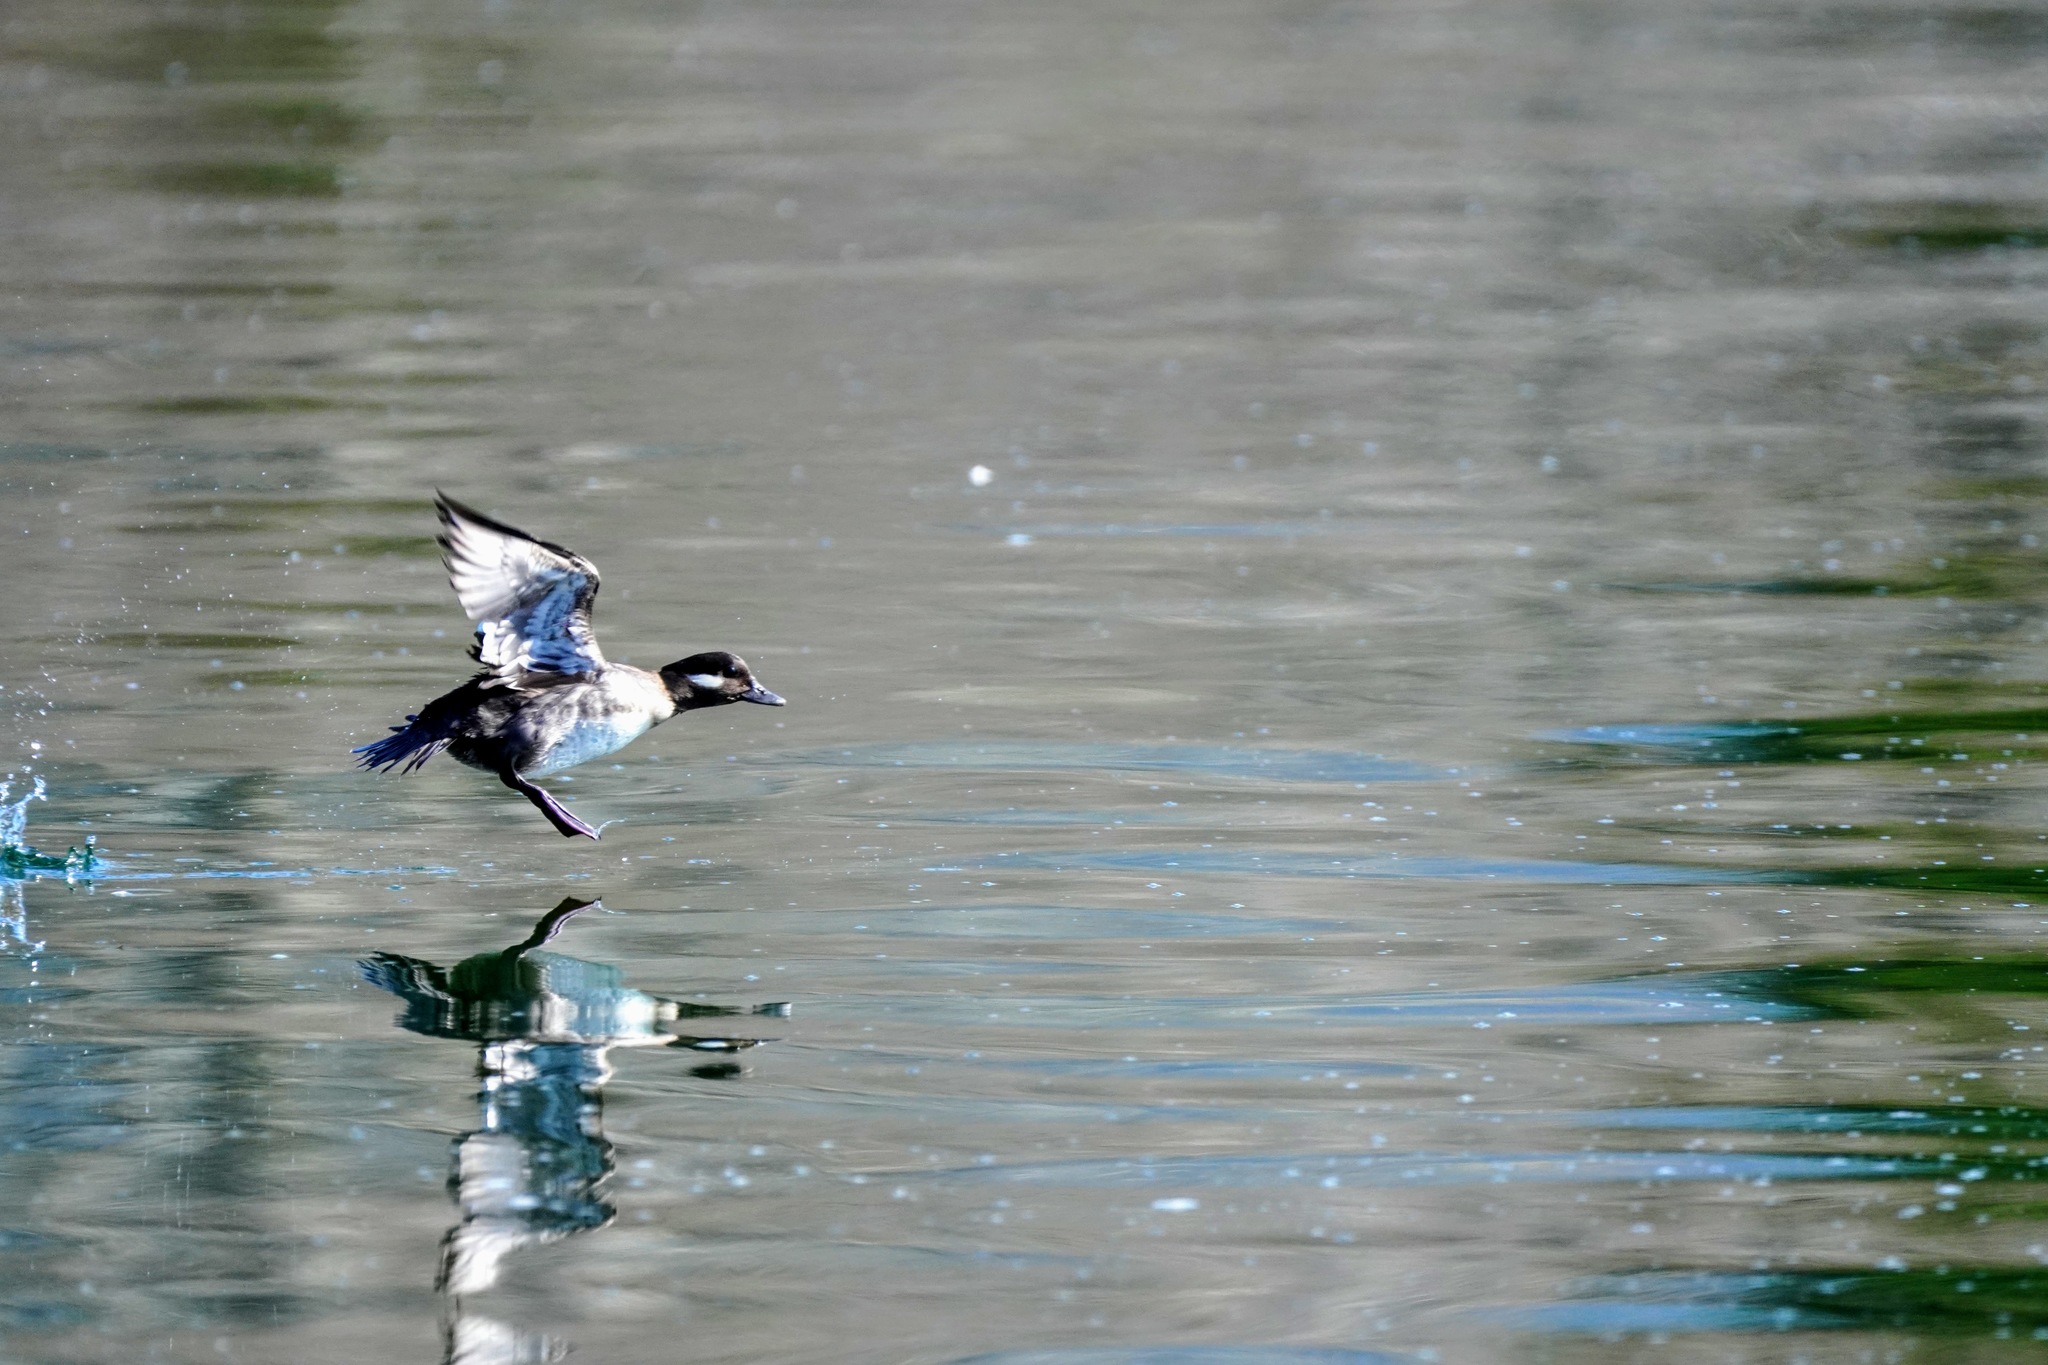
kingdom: Animalia
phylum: Chordata
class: Aves
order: Anseriformes
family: Anatidae
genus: Bucephala
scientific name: Bucephala albeola
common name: Bufflehead
